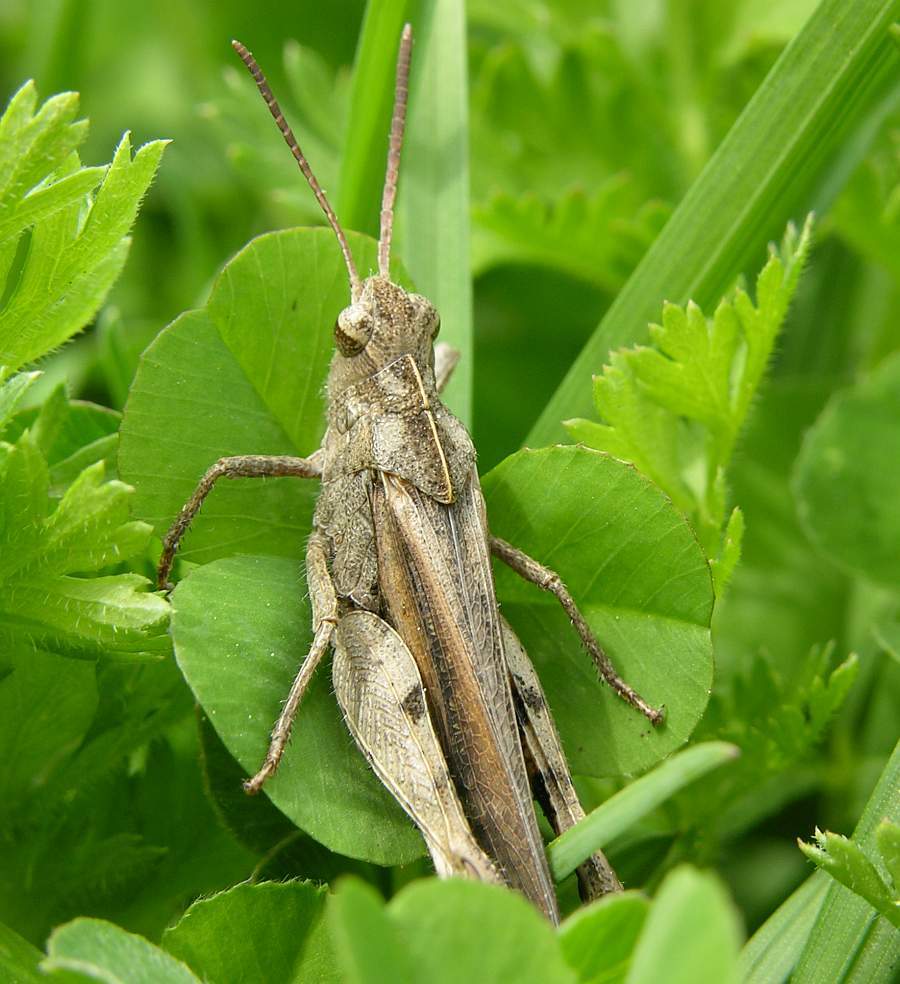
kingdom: Animalia
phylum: Arthropoda
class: Insecta
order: Orthoptera
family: Acrididae
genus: Chortophaga
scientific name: Chortophaga viridifasciata
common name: Green-striped grasshopper
